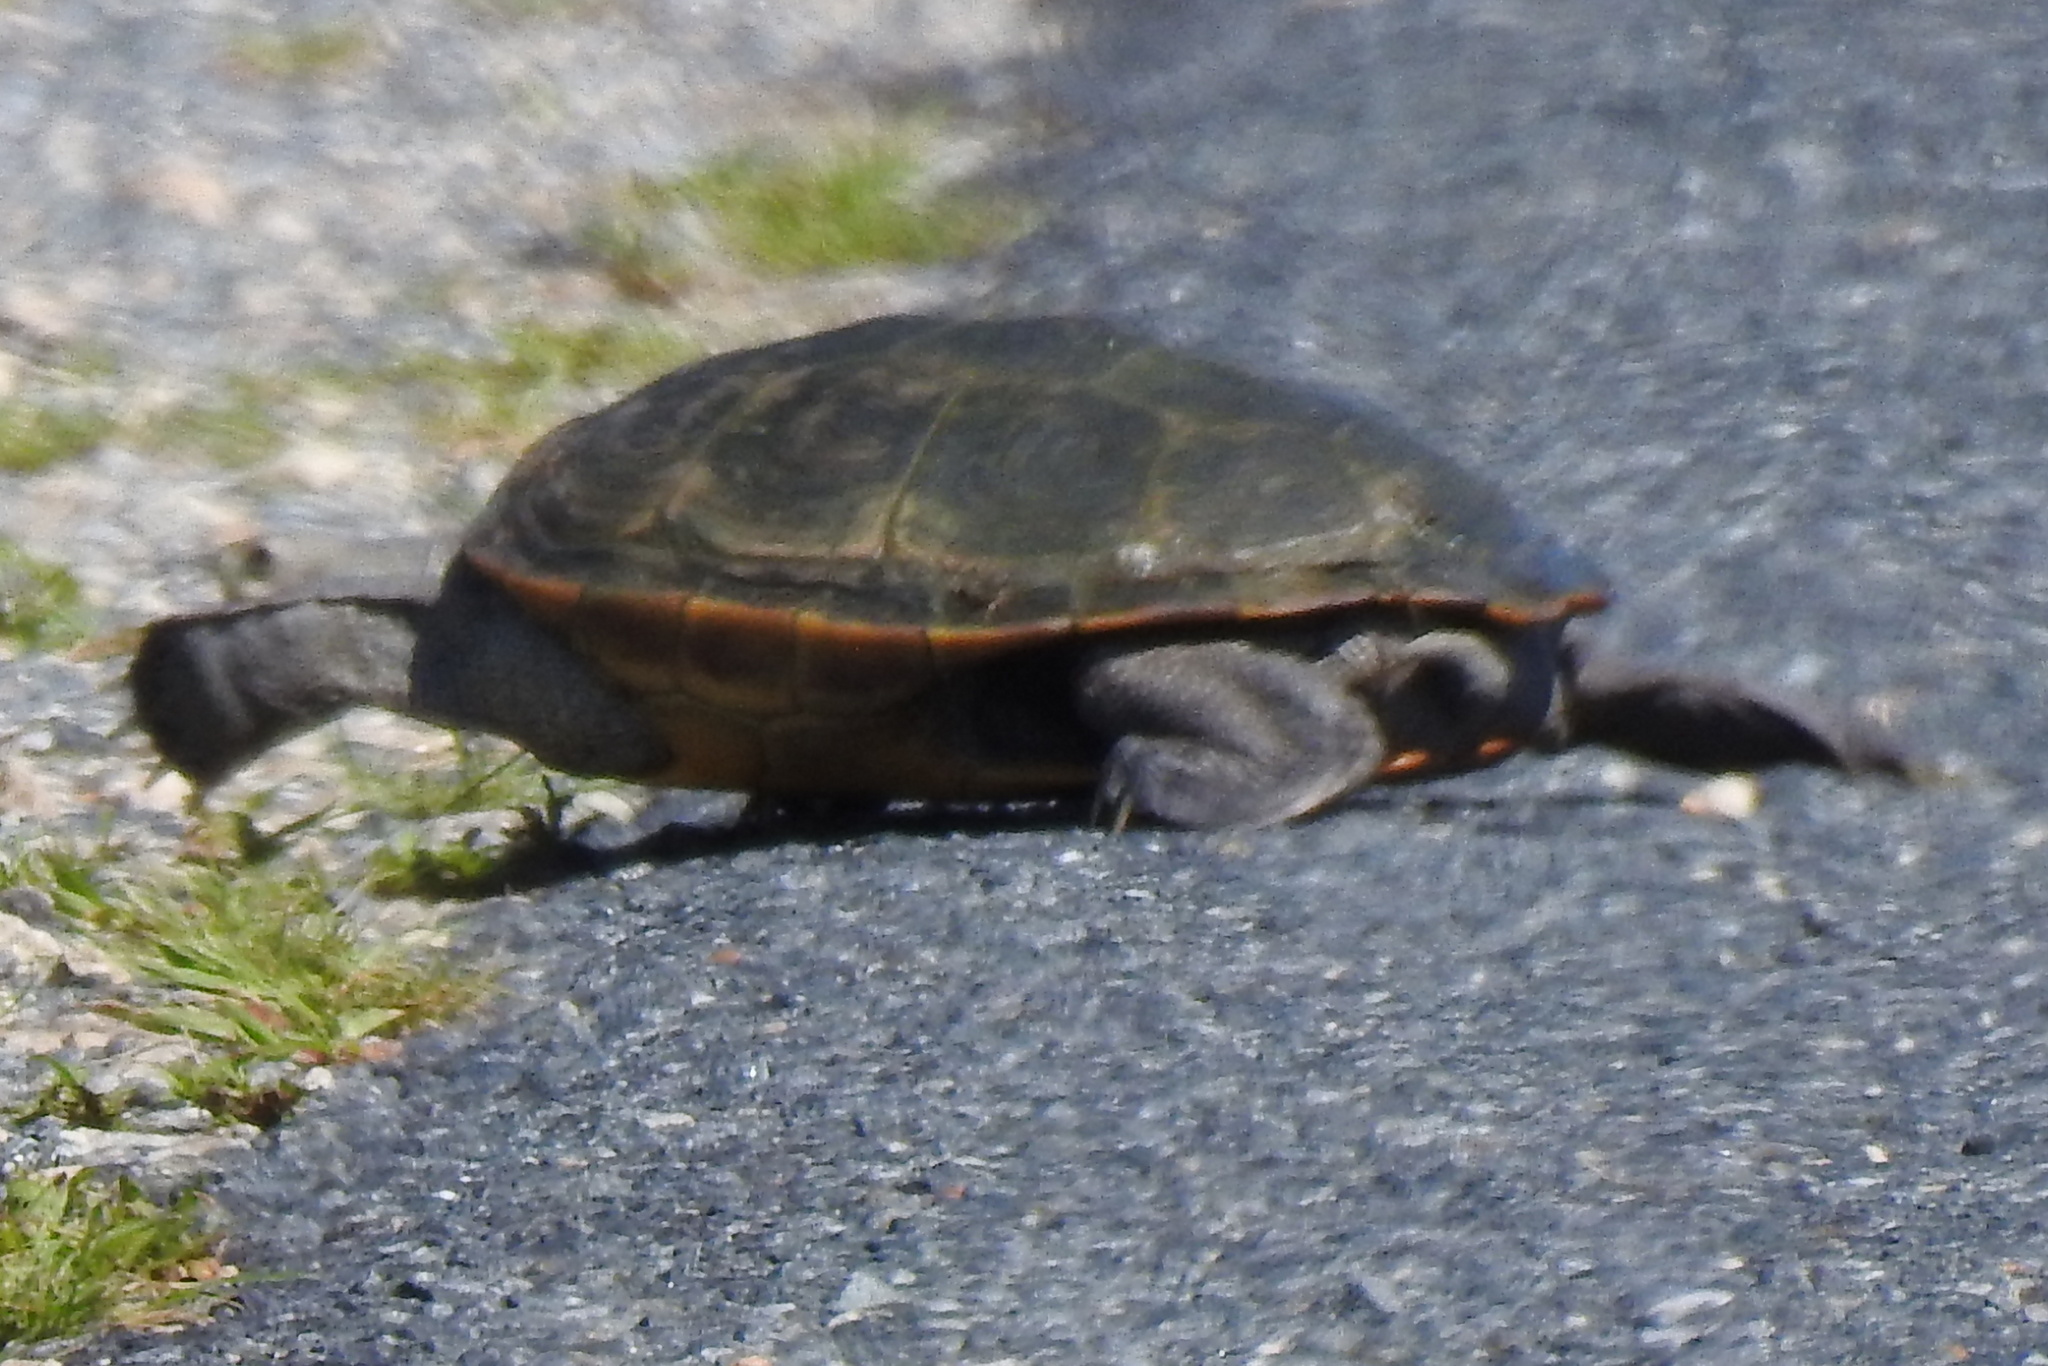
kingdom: Animalia
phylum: Chordata
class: Testudines
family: Emydidae
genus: Malaclemys
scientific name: Malaclemys terrapin
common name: Diamondback terrapin
